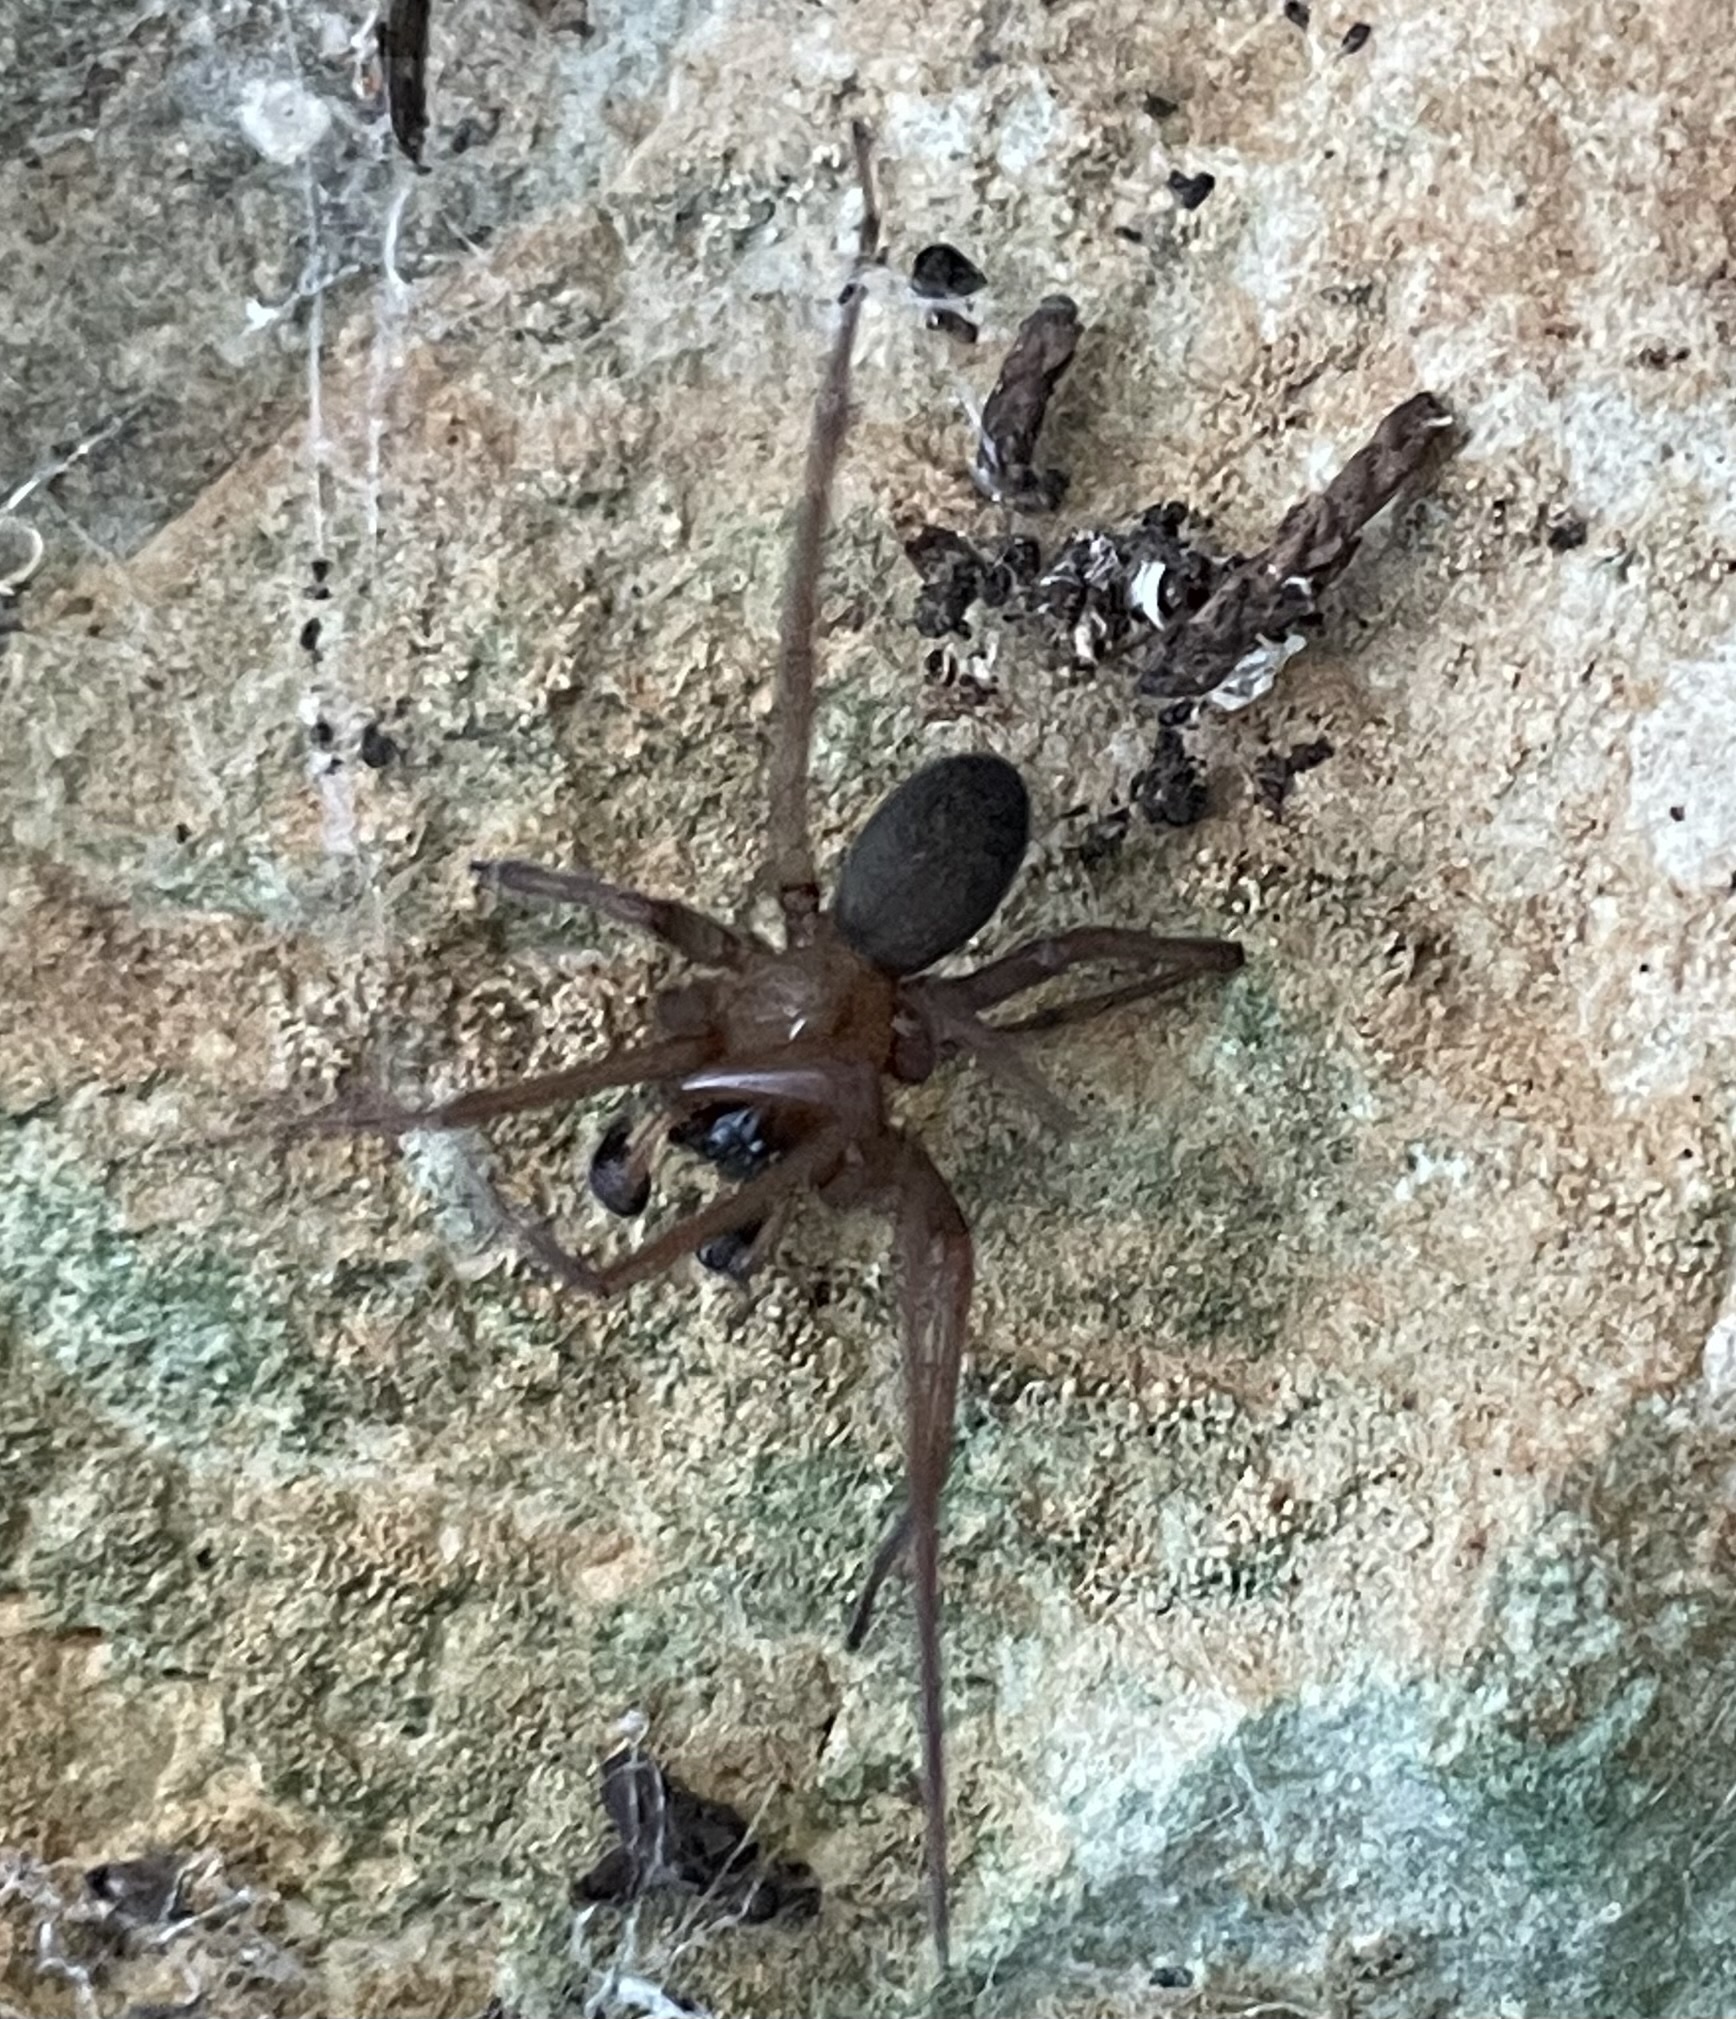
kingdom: Animalia
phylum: Arthropoda
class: Arachnida
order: Araneae
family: Desidae
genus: Metaltella
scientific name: Metaltella simoni
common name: Cribellate spider
